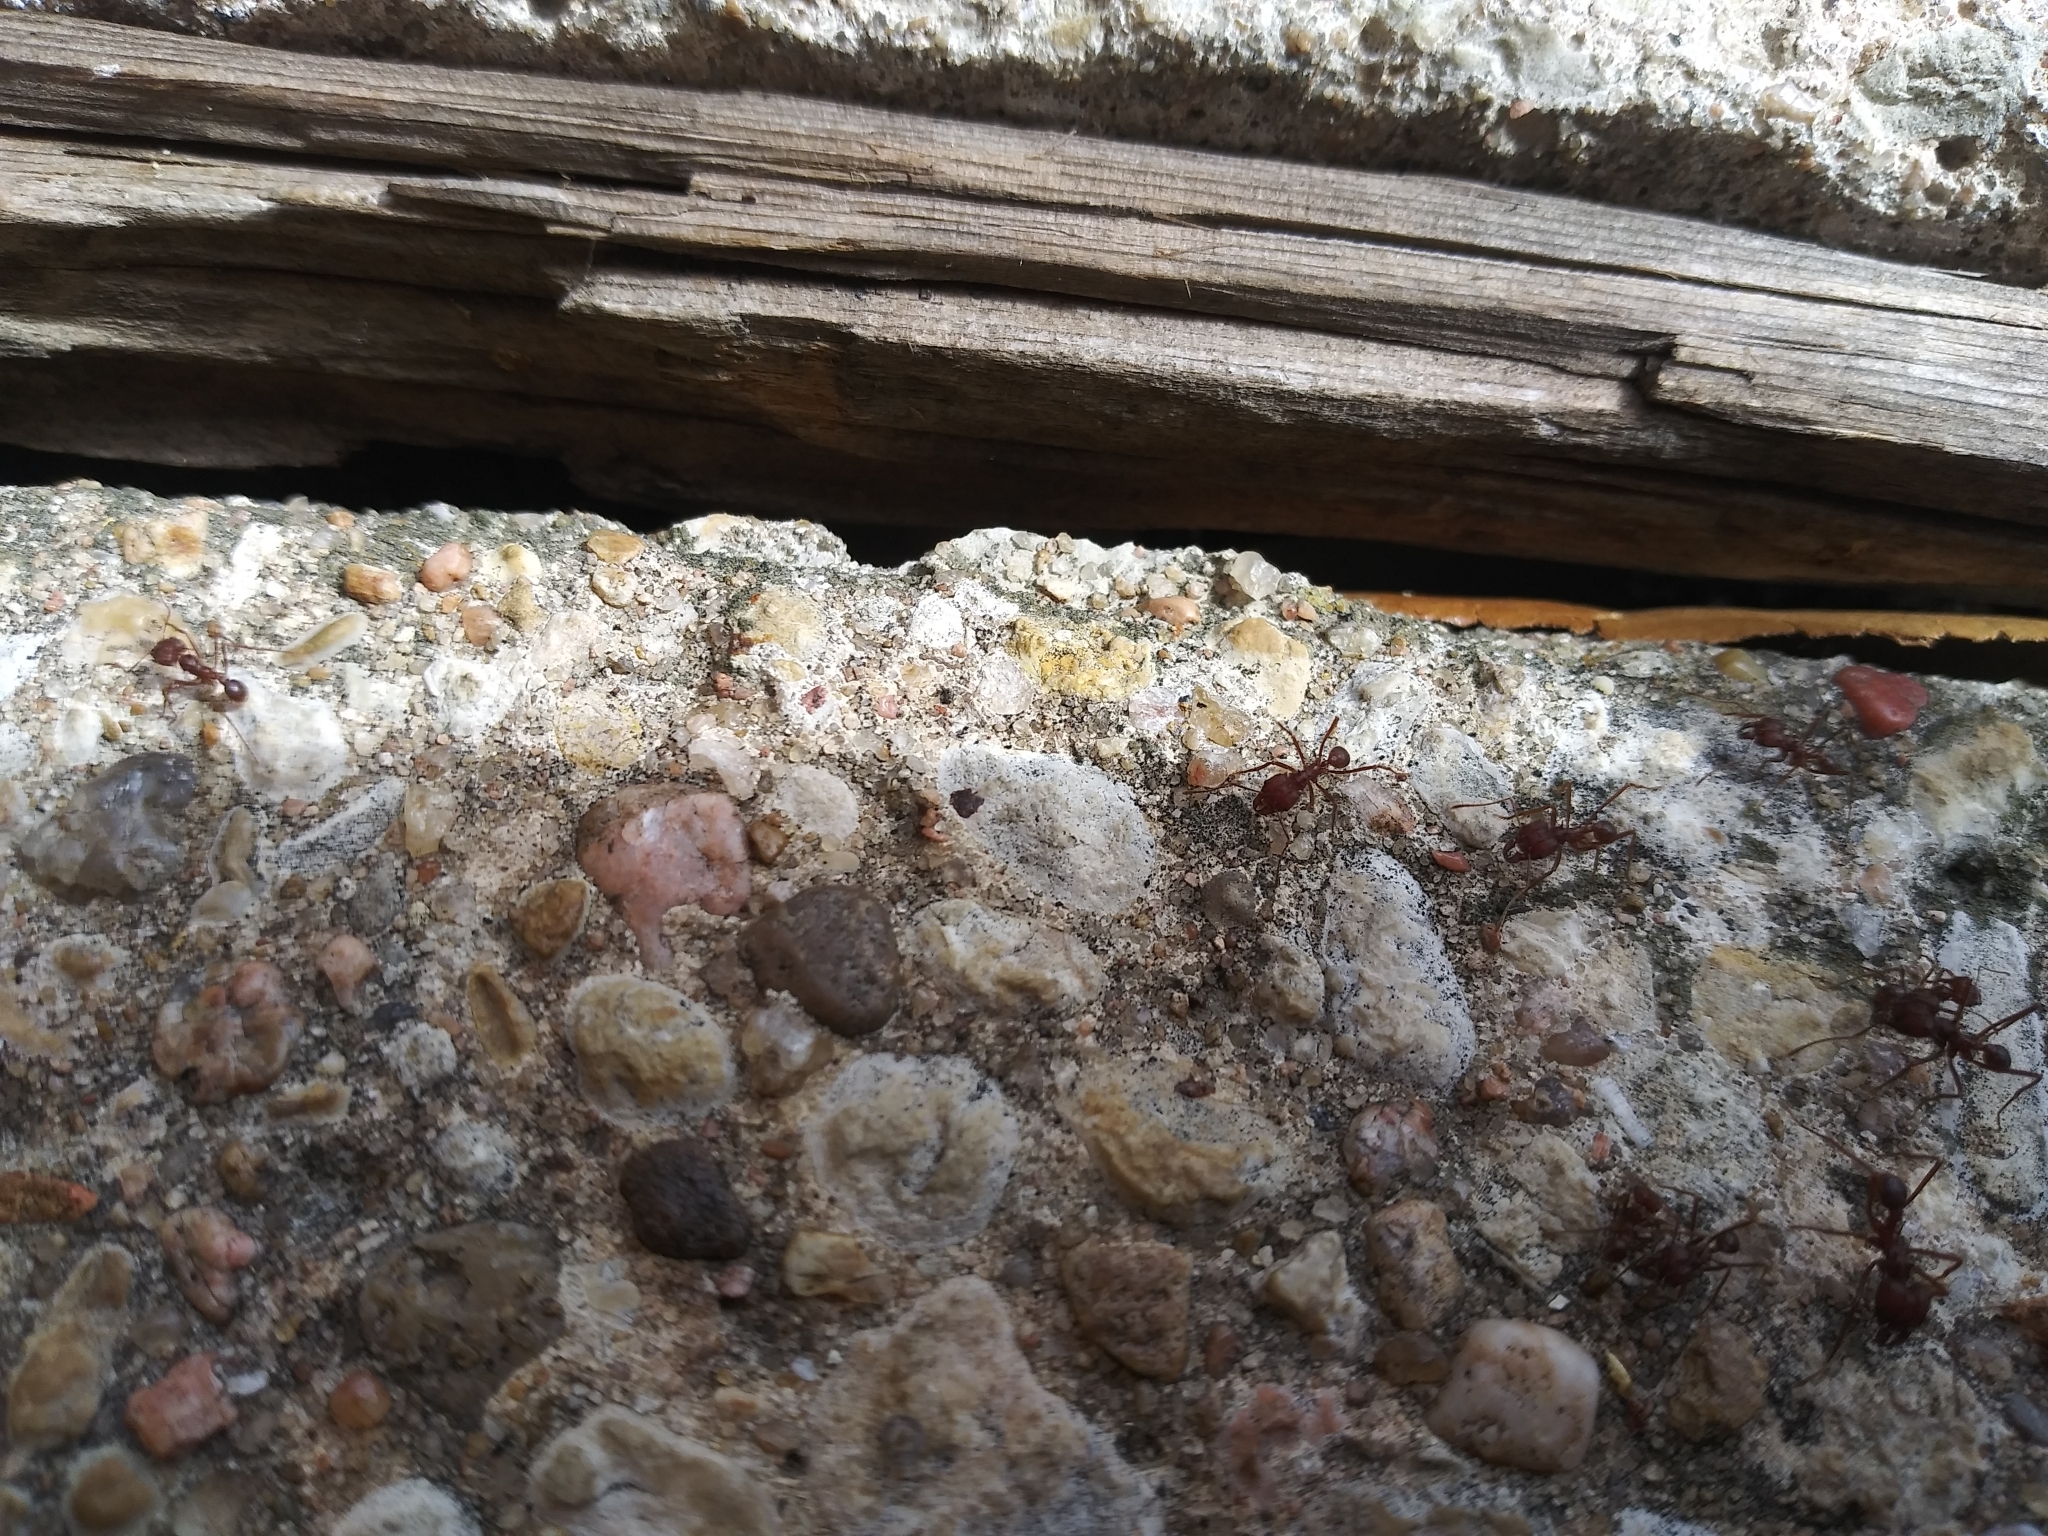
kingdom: Animalia
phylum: Arthropoda
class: Insecta
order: Hymenoptera
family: Formicidae
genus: Atta
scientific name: Atta texana
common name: Texas leafcutting ant
